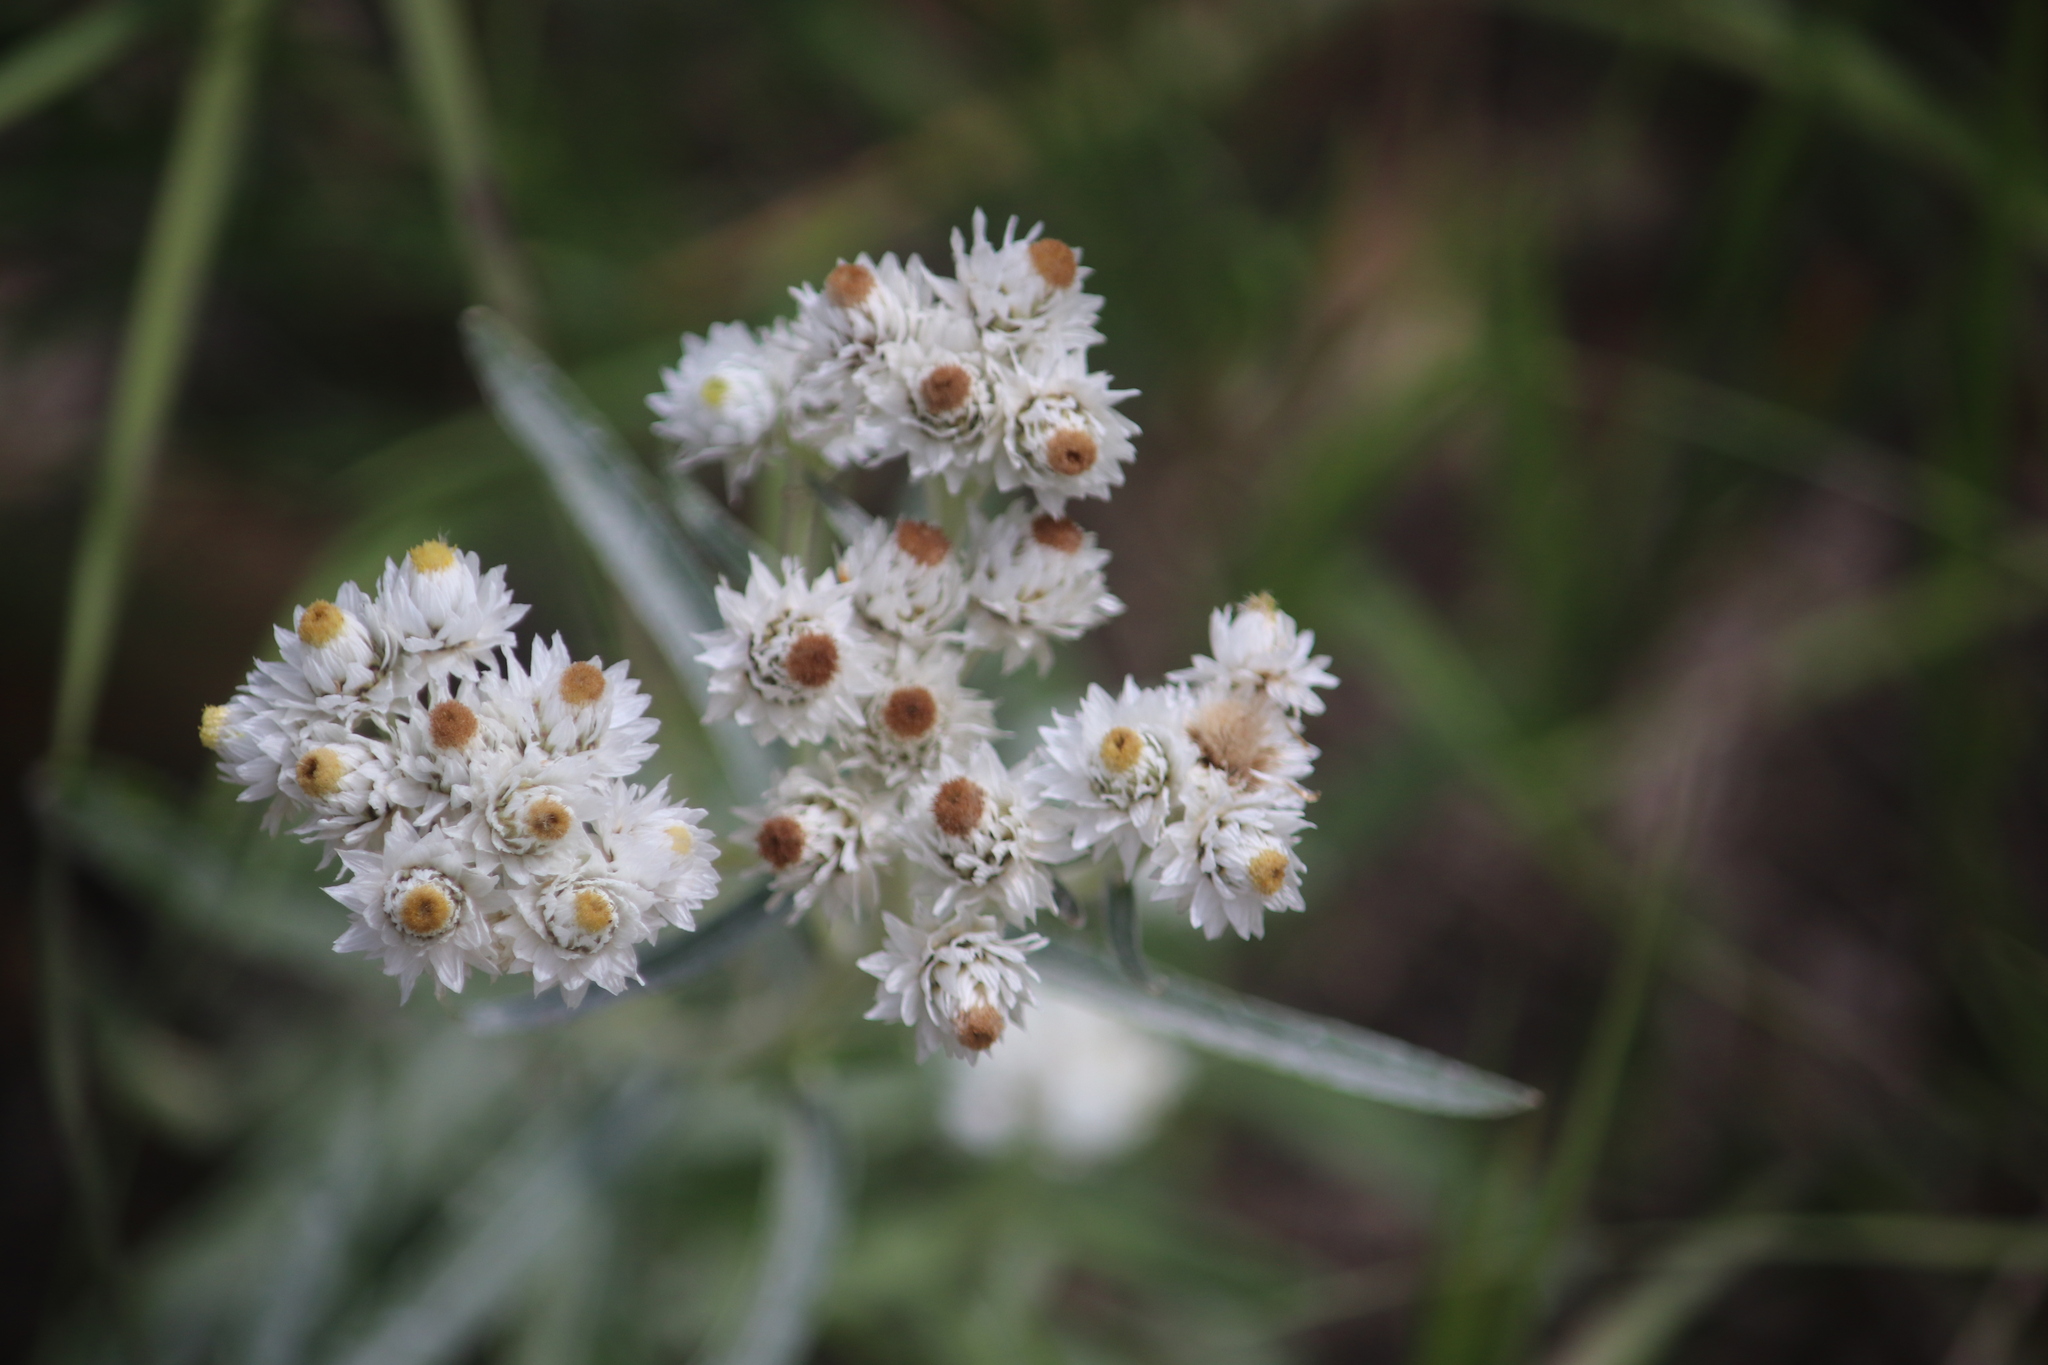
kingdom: Plantae
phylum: Tracheophyta
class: Magnoliopsida
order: Asterales
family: Asteraceae
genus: Anaphalis
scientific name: Anaphalis margaritacea
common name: Pearly everlasting
